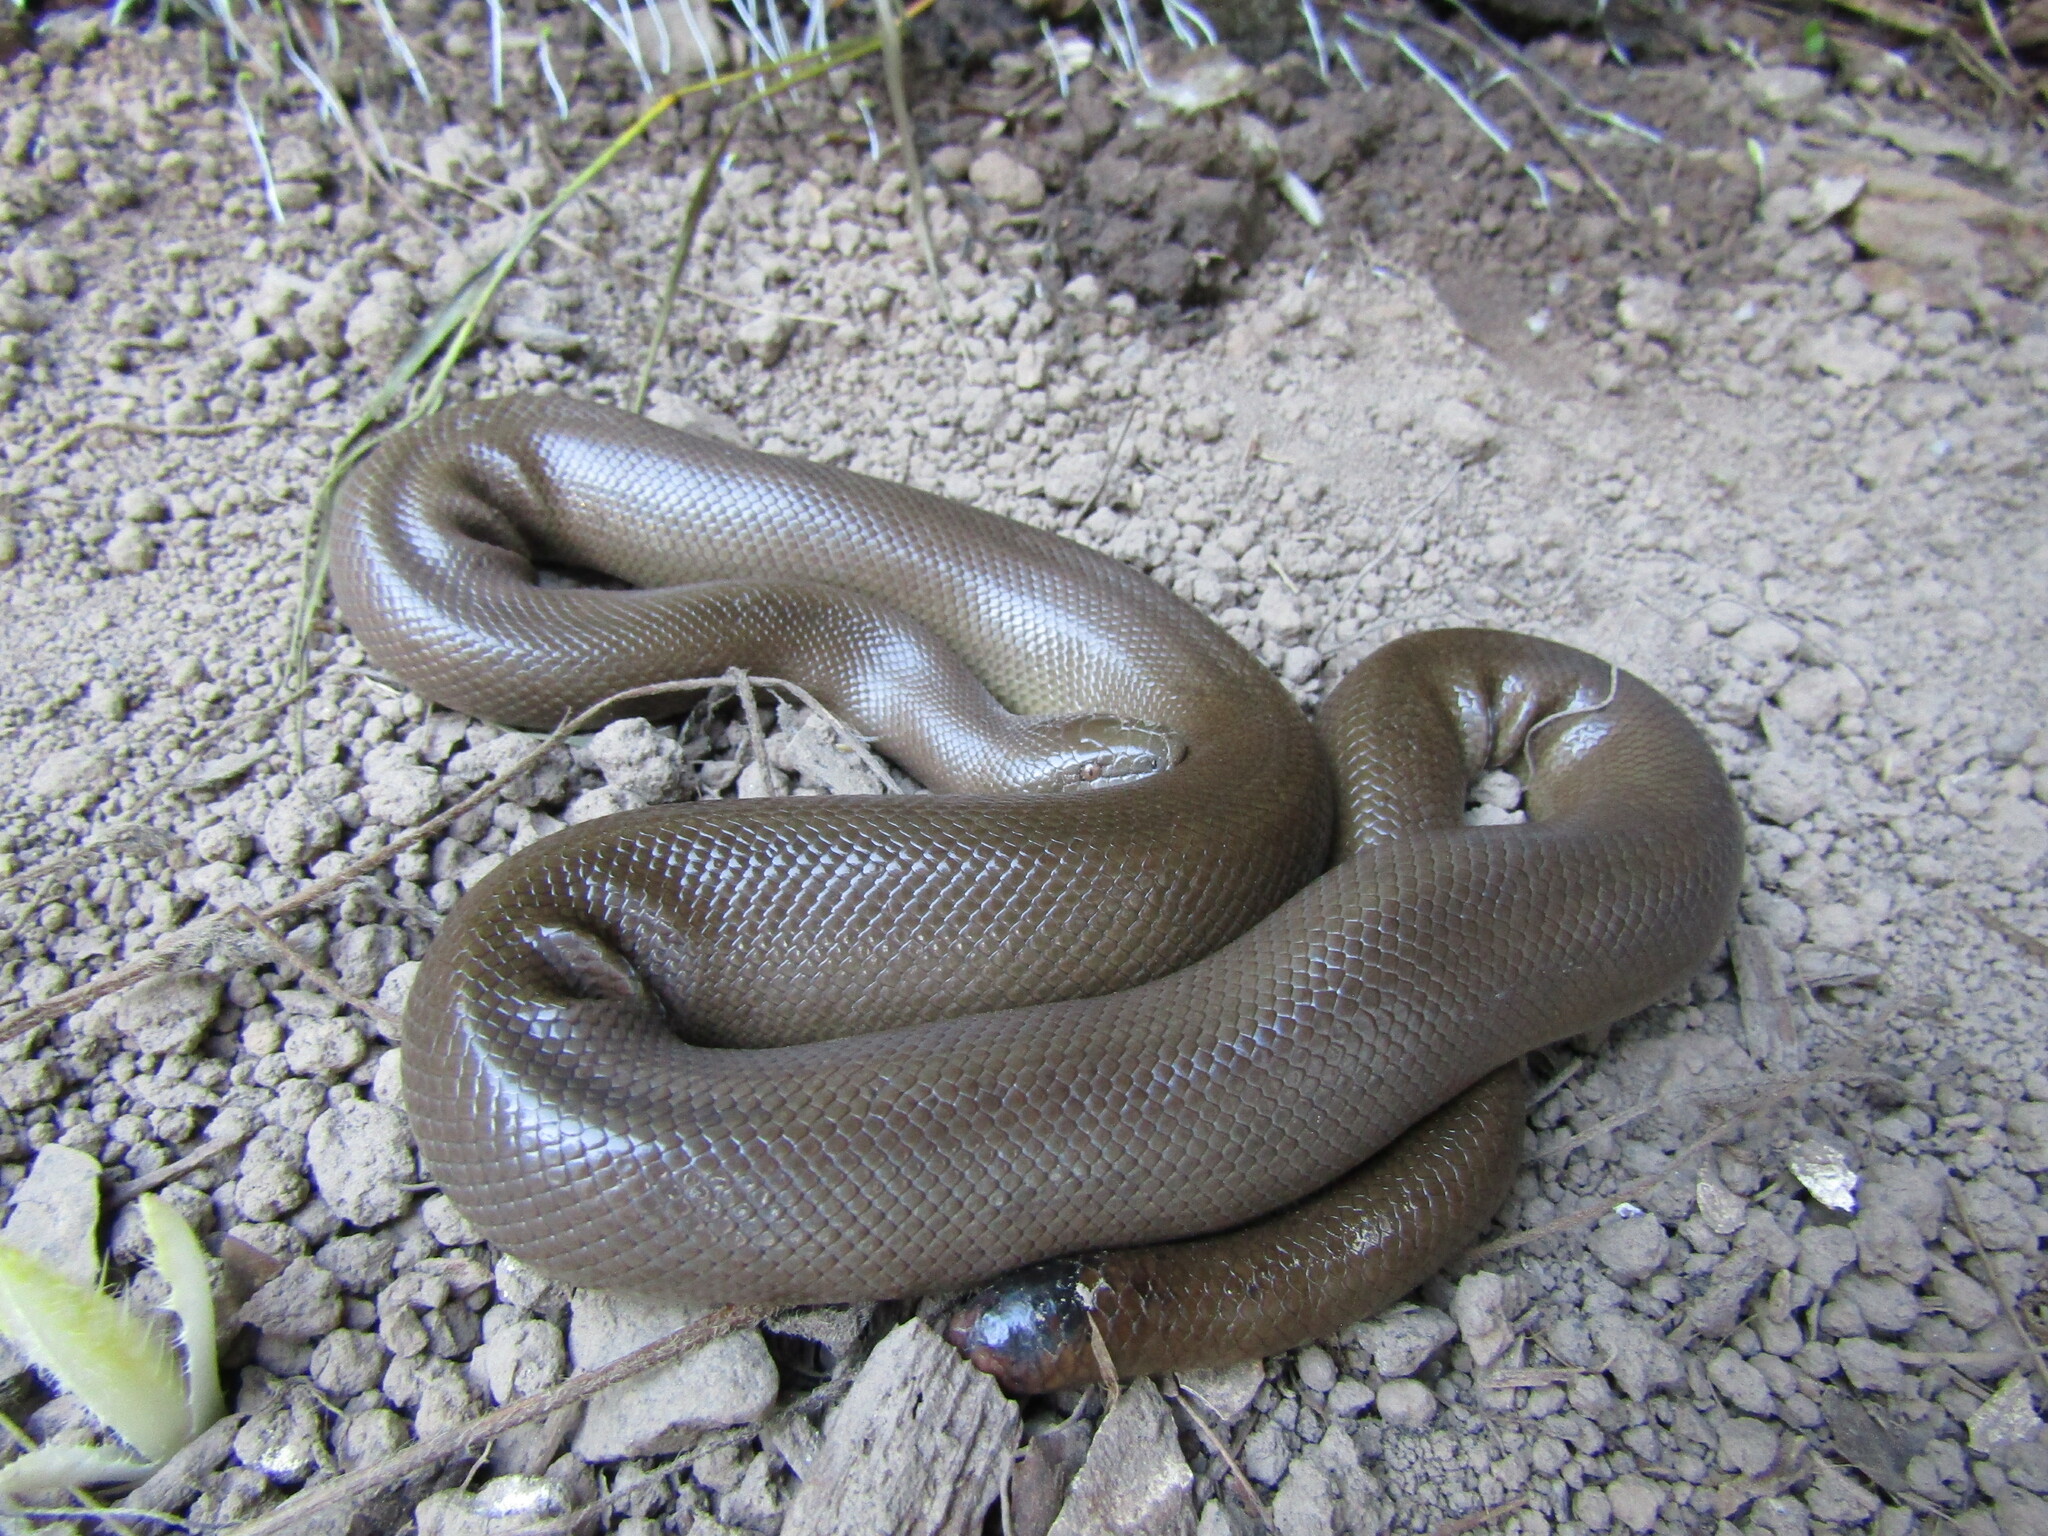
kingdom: Animalia
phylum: Chordata
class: Squamata
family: Boidae
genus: Charina
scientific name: Charina bottae
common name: Northern rubber boa
